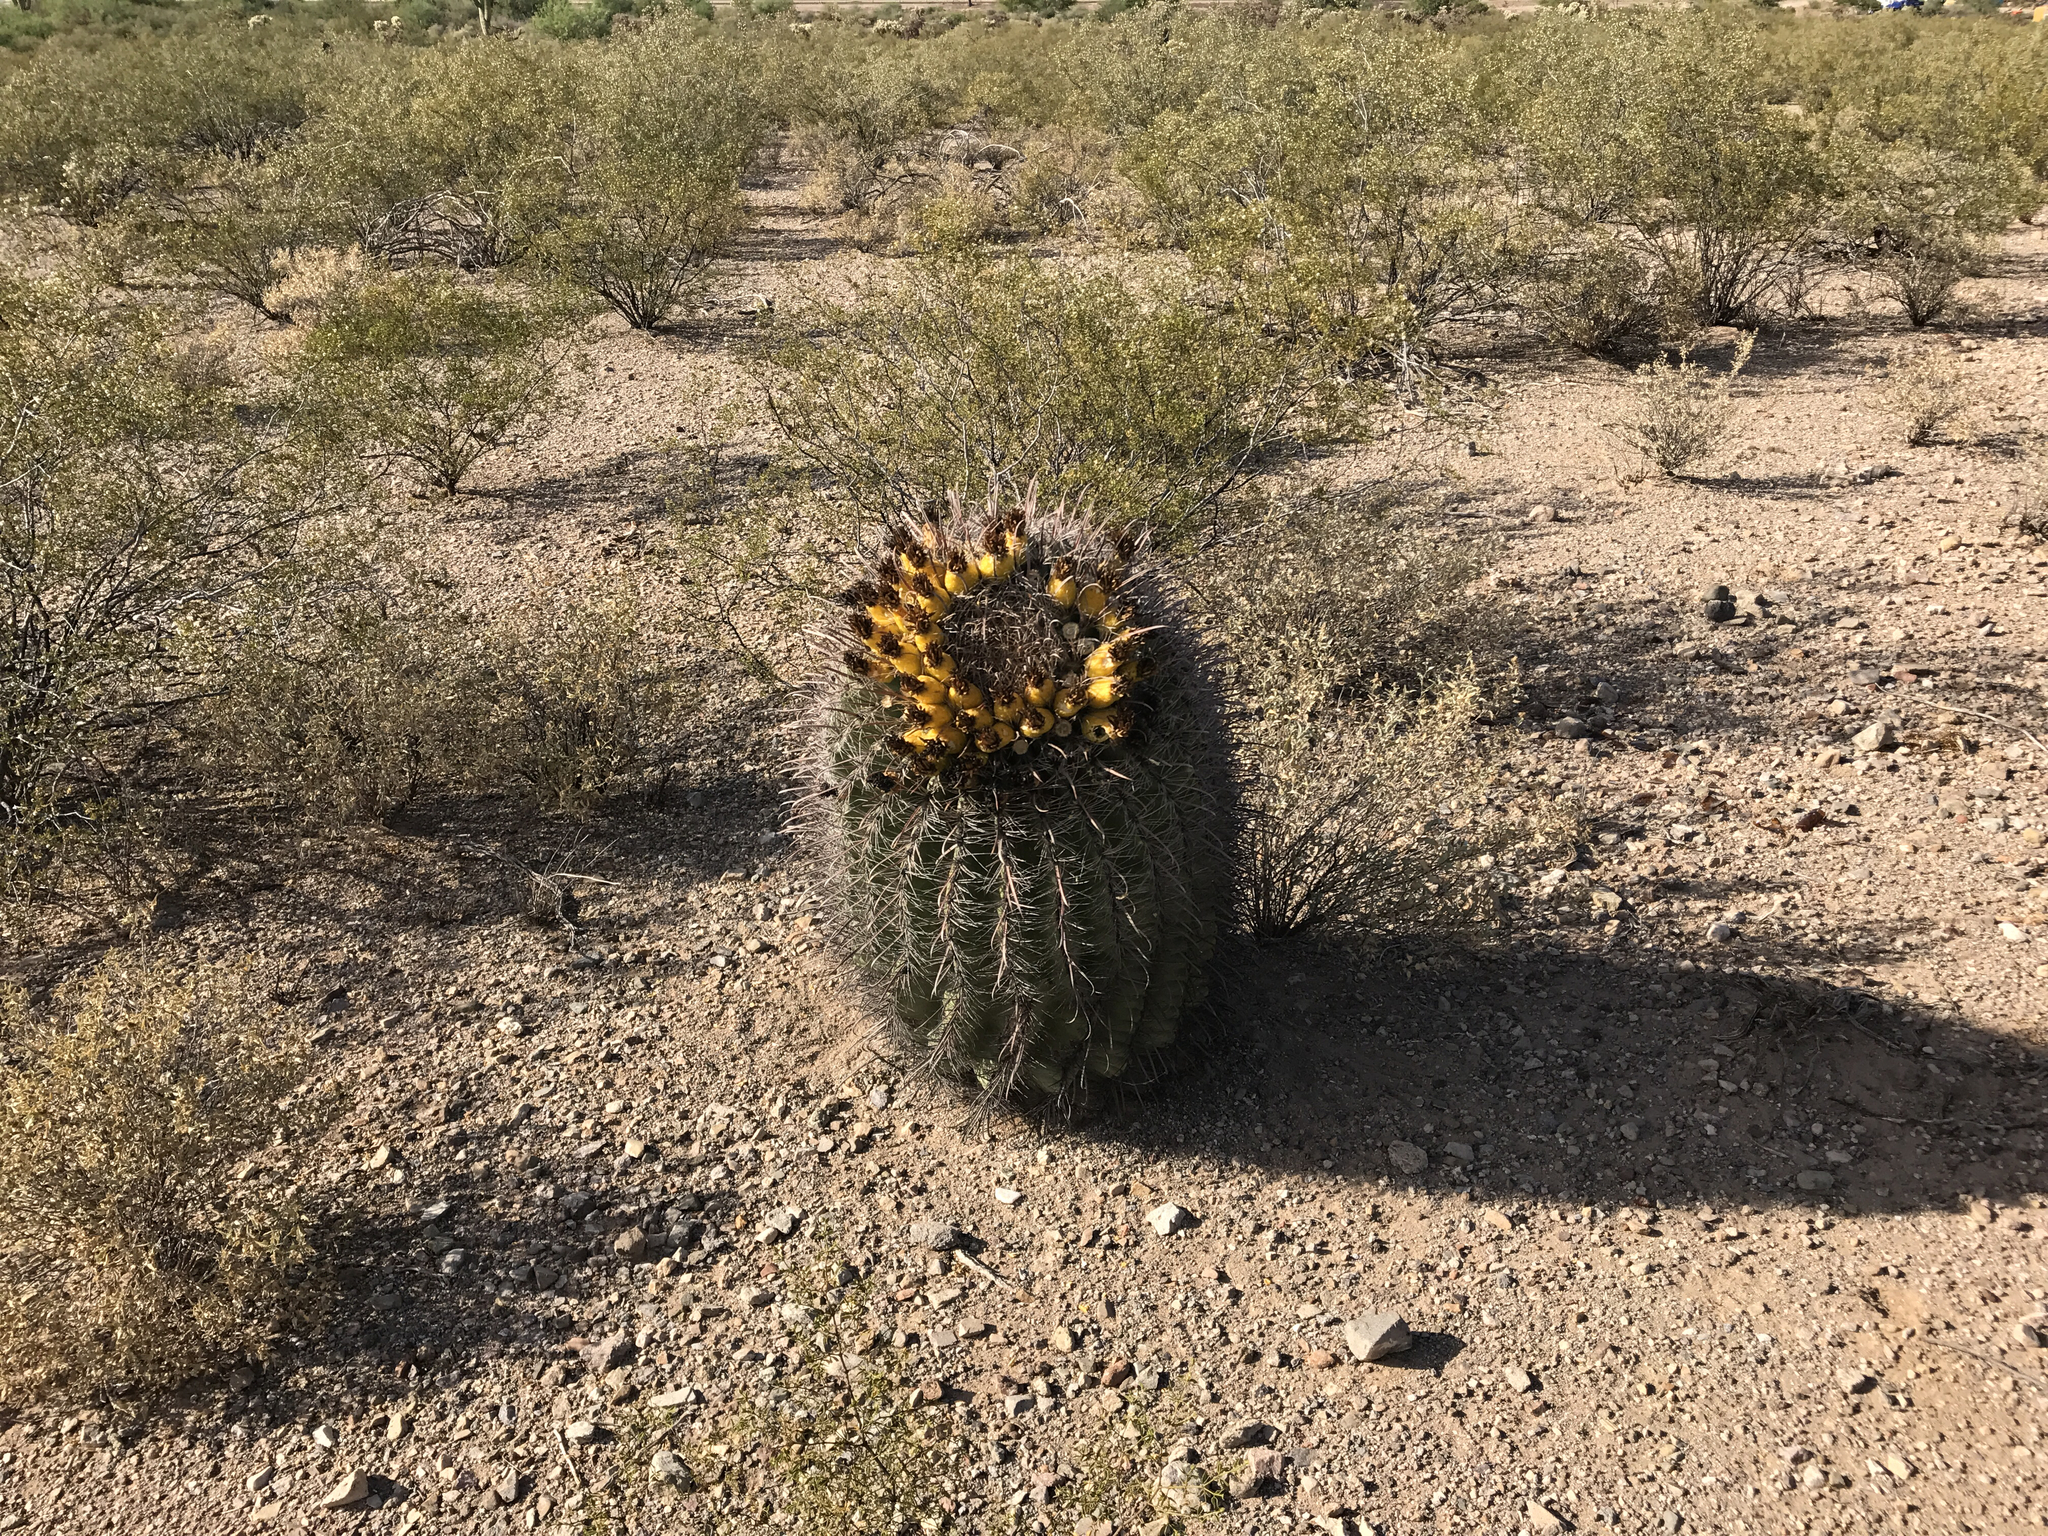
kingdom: Plantae
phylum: Tracheophyta
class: Magnoliopsida
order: Caryophyllales
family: Cactaceae
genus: Ferocactus
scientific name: Ferocactus wislizeni
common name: Candy barrel cactus
